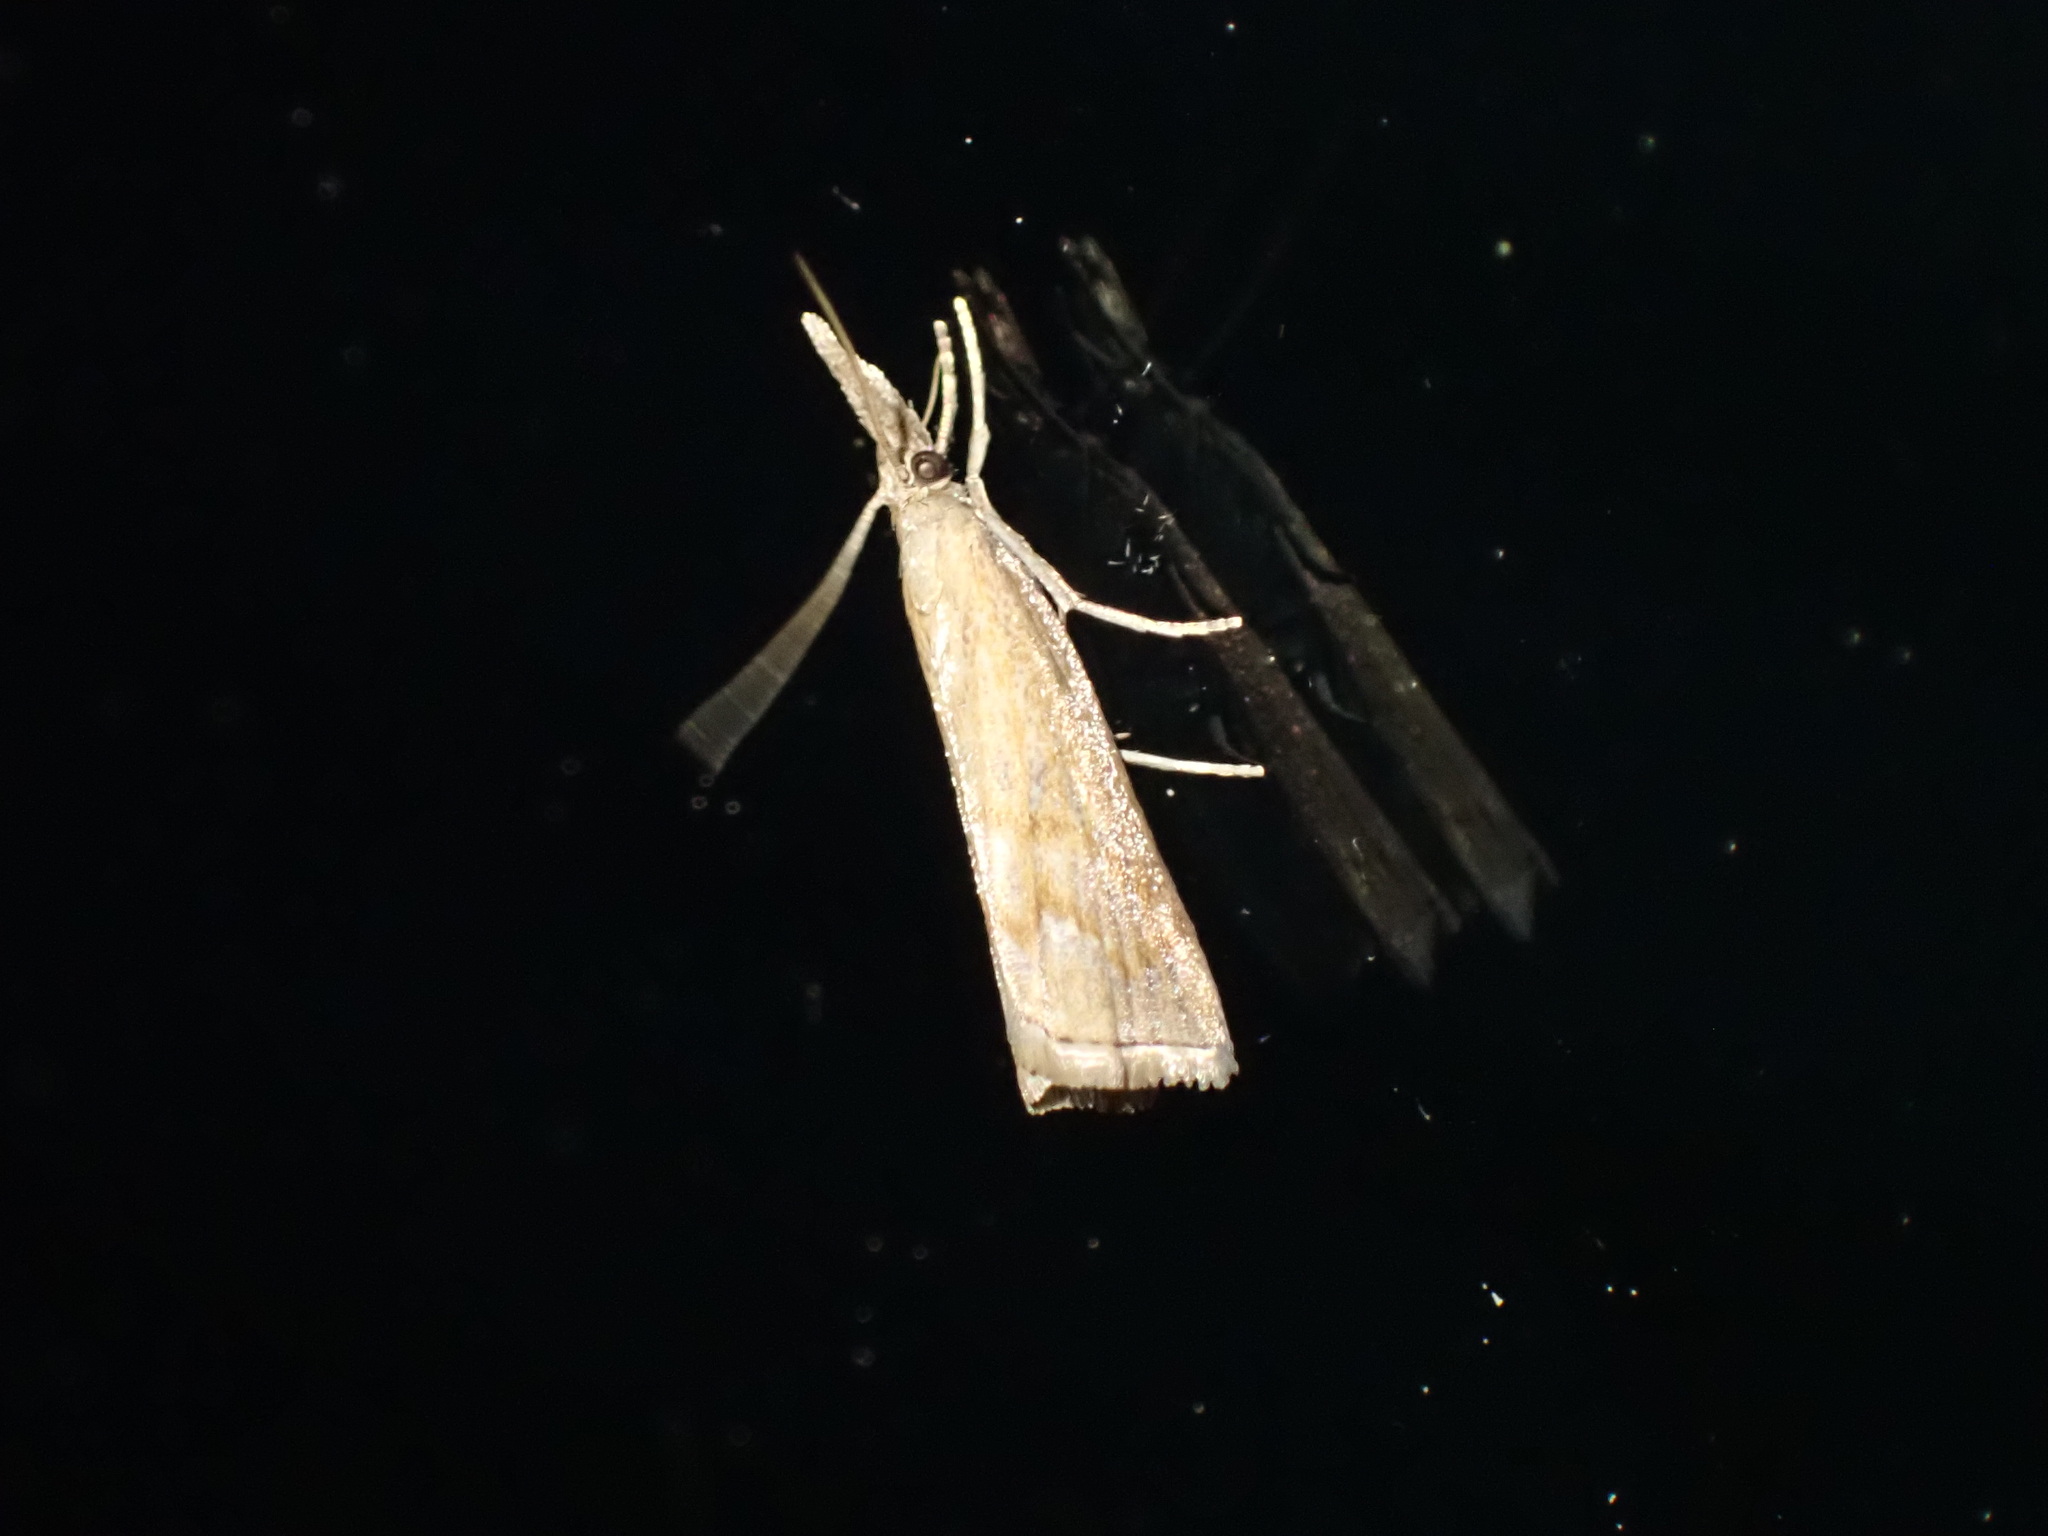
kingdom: Animalia
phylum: Arthropoda
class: Insecta
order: Lepidoptera
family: Crambidae
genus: Neodactria
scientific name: Neodactria luteolellus
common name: Mottled grass-veneer
